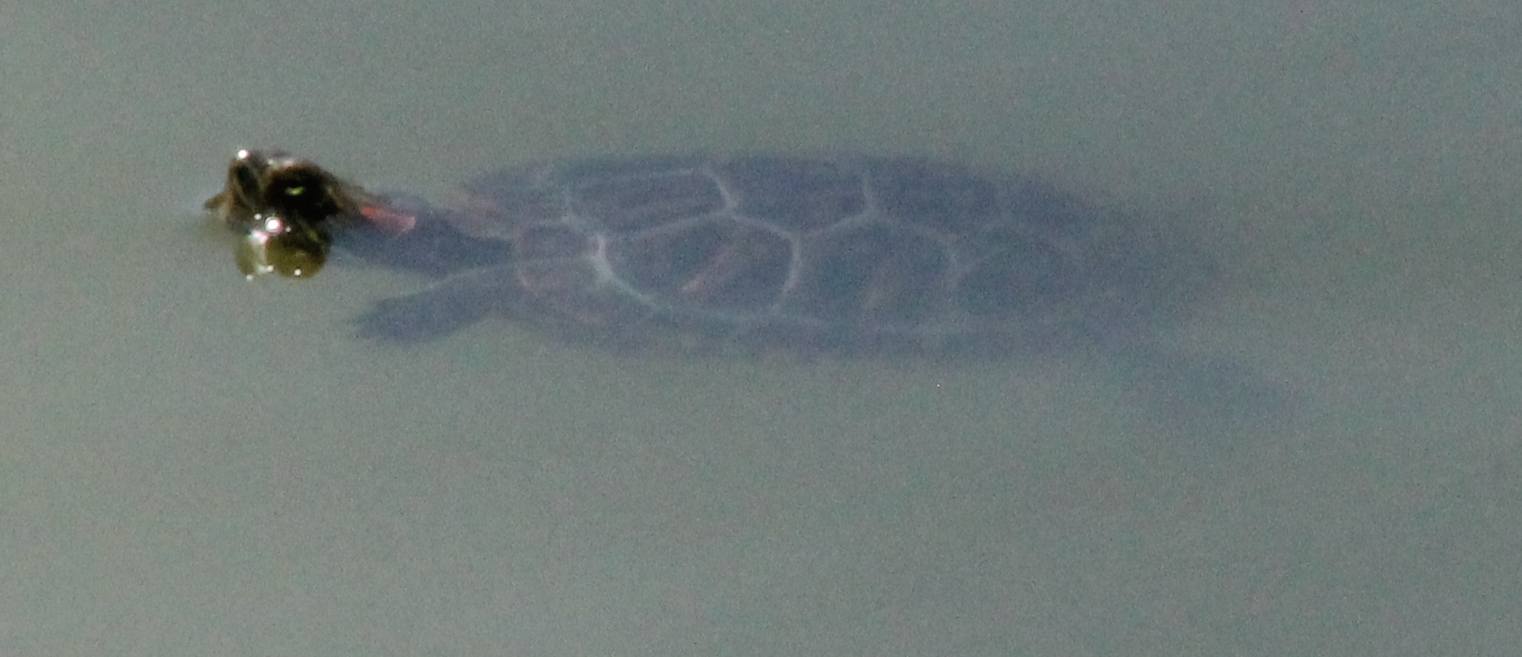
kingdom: Animalia
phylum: Chordata
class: Testudines
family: Emydidae
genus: Trachemys
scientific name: Trachemys scripta
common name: Slider
